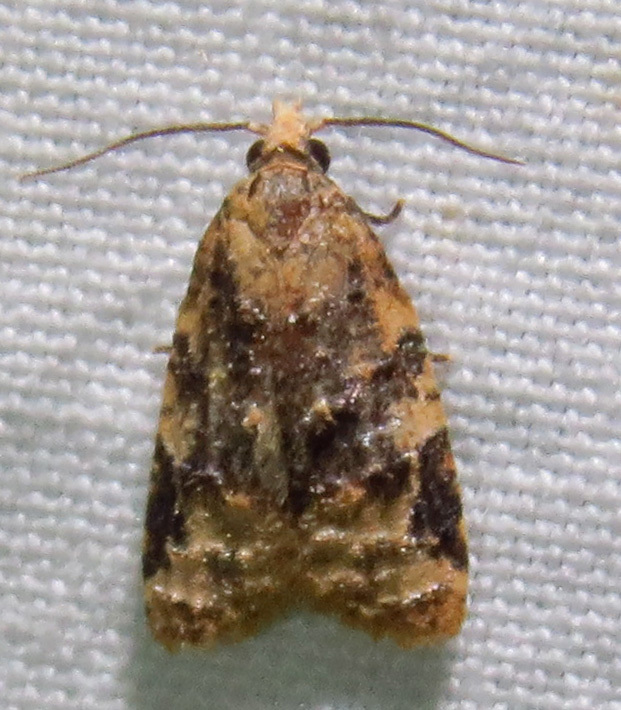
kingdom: Animalia
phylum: Arthropoda
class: Insecta
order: Lepidoptera
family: Tortricidae
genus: Platynota
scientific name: Platynota exasperatana
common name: Exasperating platynota moth
